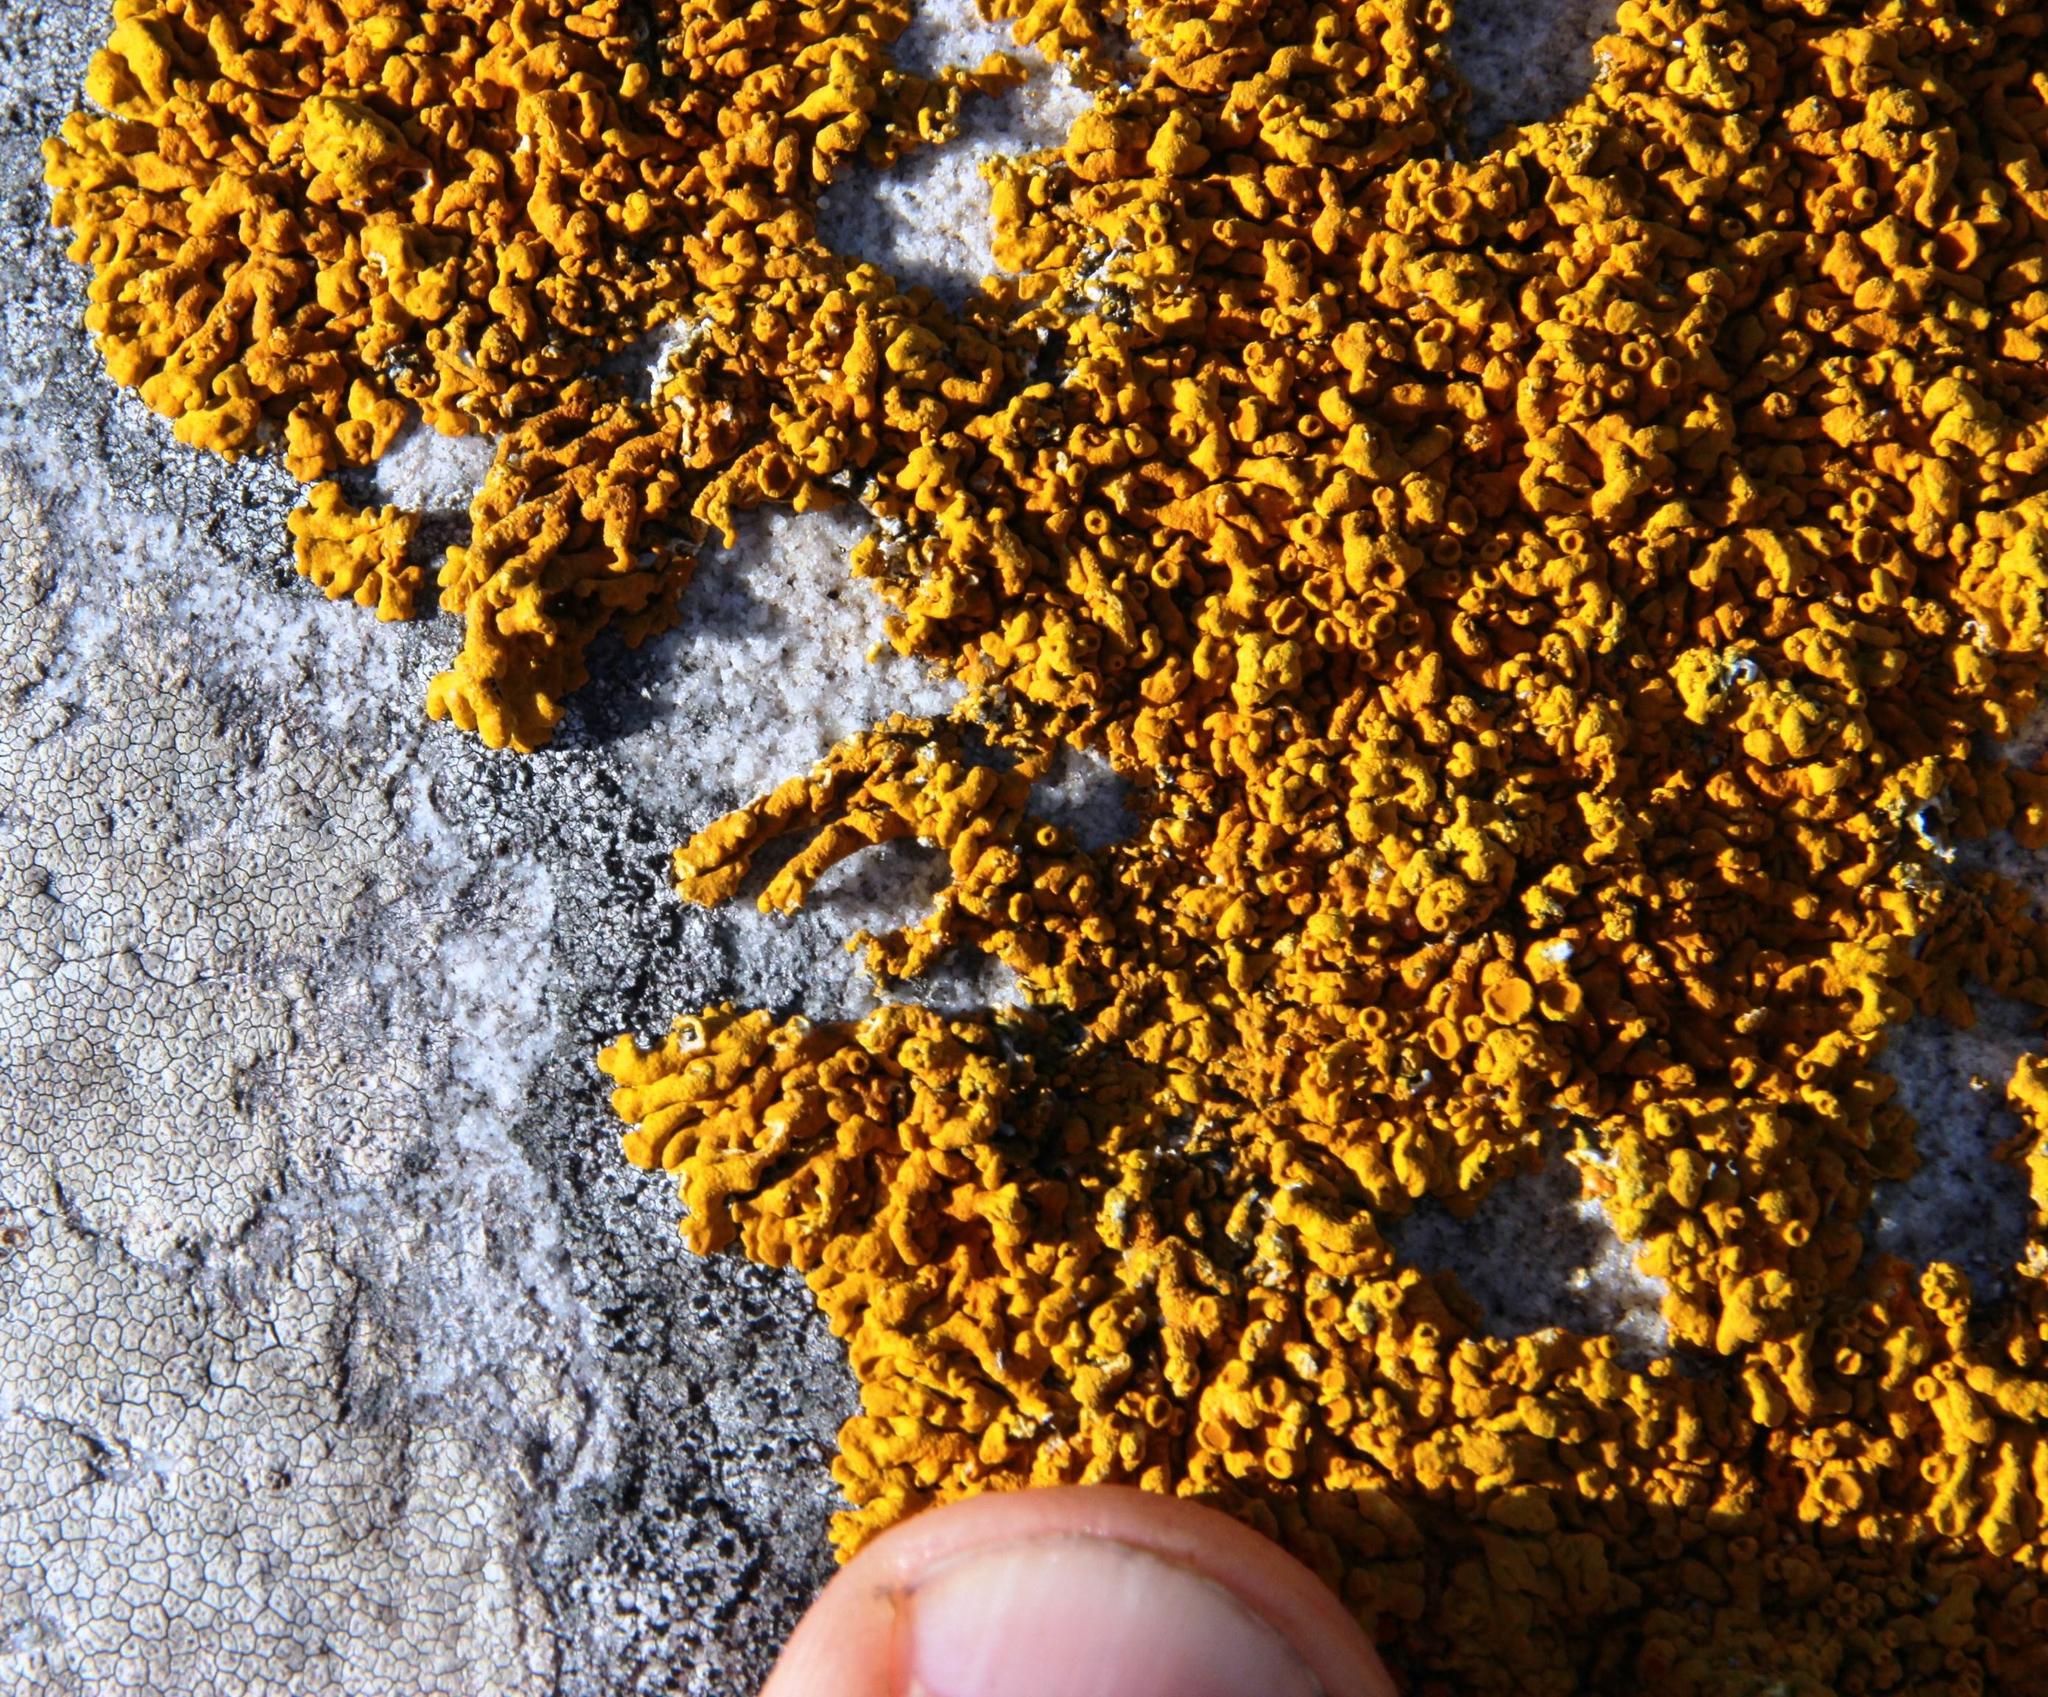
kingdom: Fungi
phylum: Ascomycota
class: Lecanoromycetes
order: Teloschistales
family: Teloschistaceae
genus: Dufourea
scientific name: Dufourea capensis
